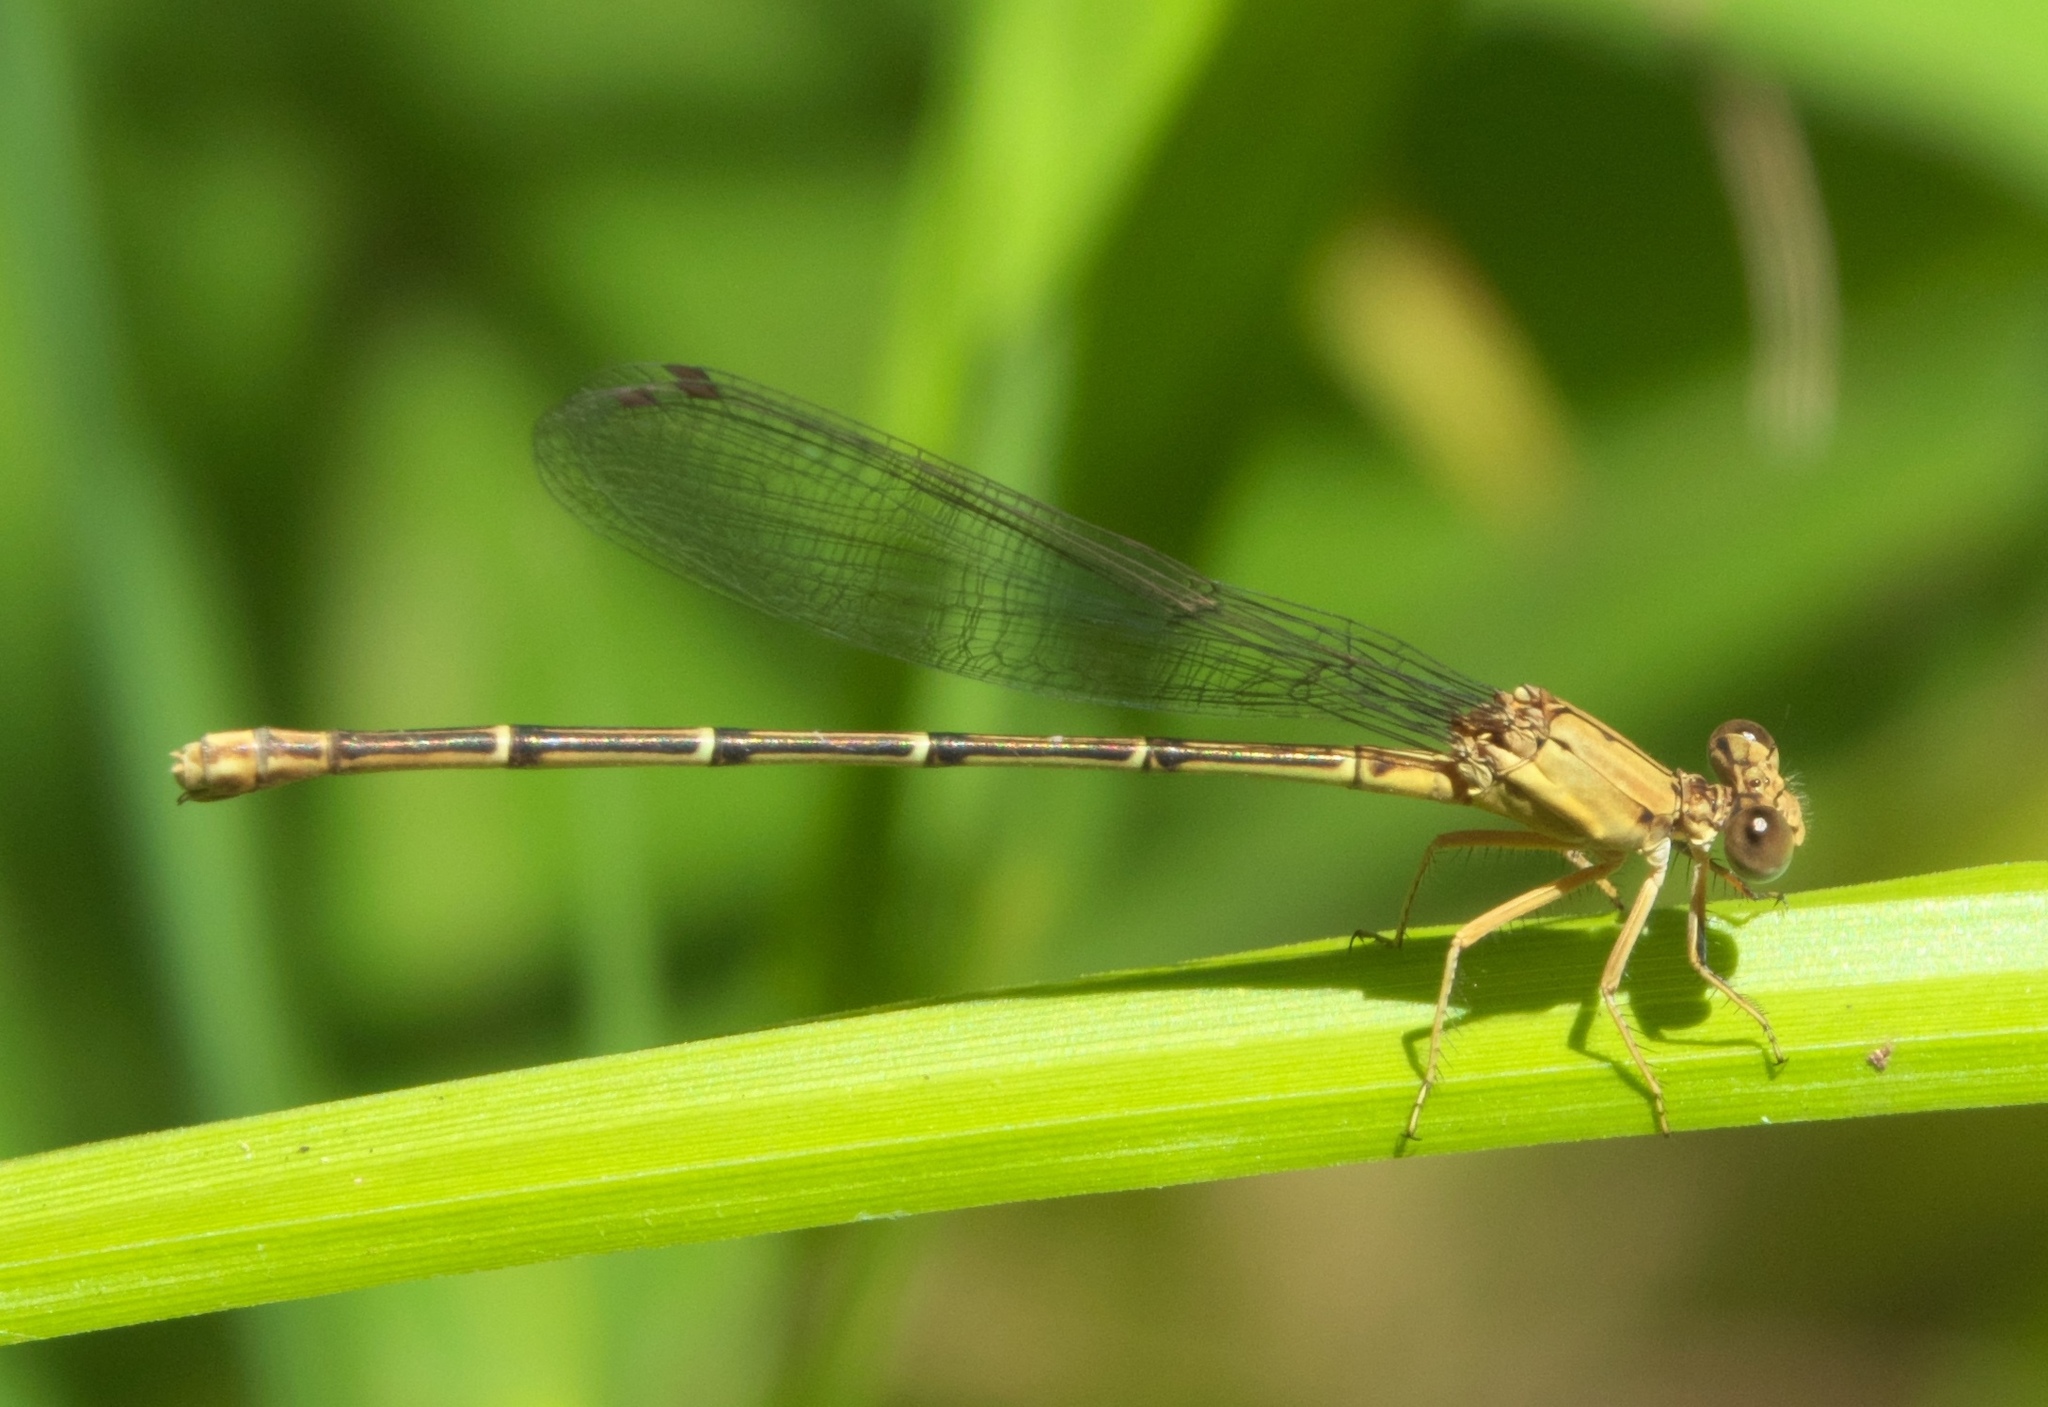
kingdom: Animalia
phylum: Arthropoda
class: Insecta
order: Odonata
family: Coenagrionidae
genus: Argia
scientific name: Argia apicalis
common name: Blue-fronted dancer
